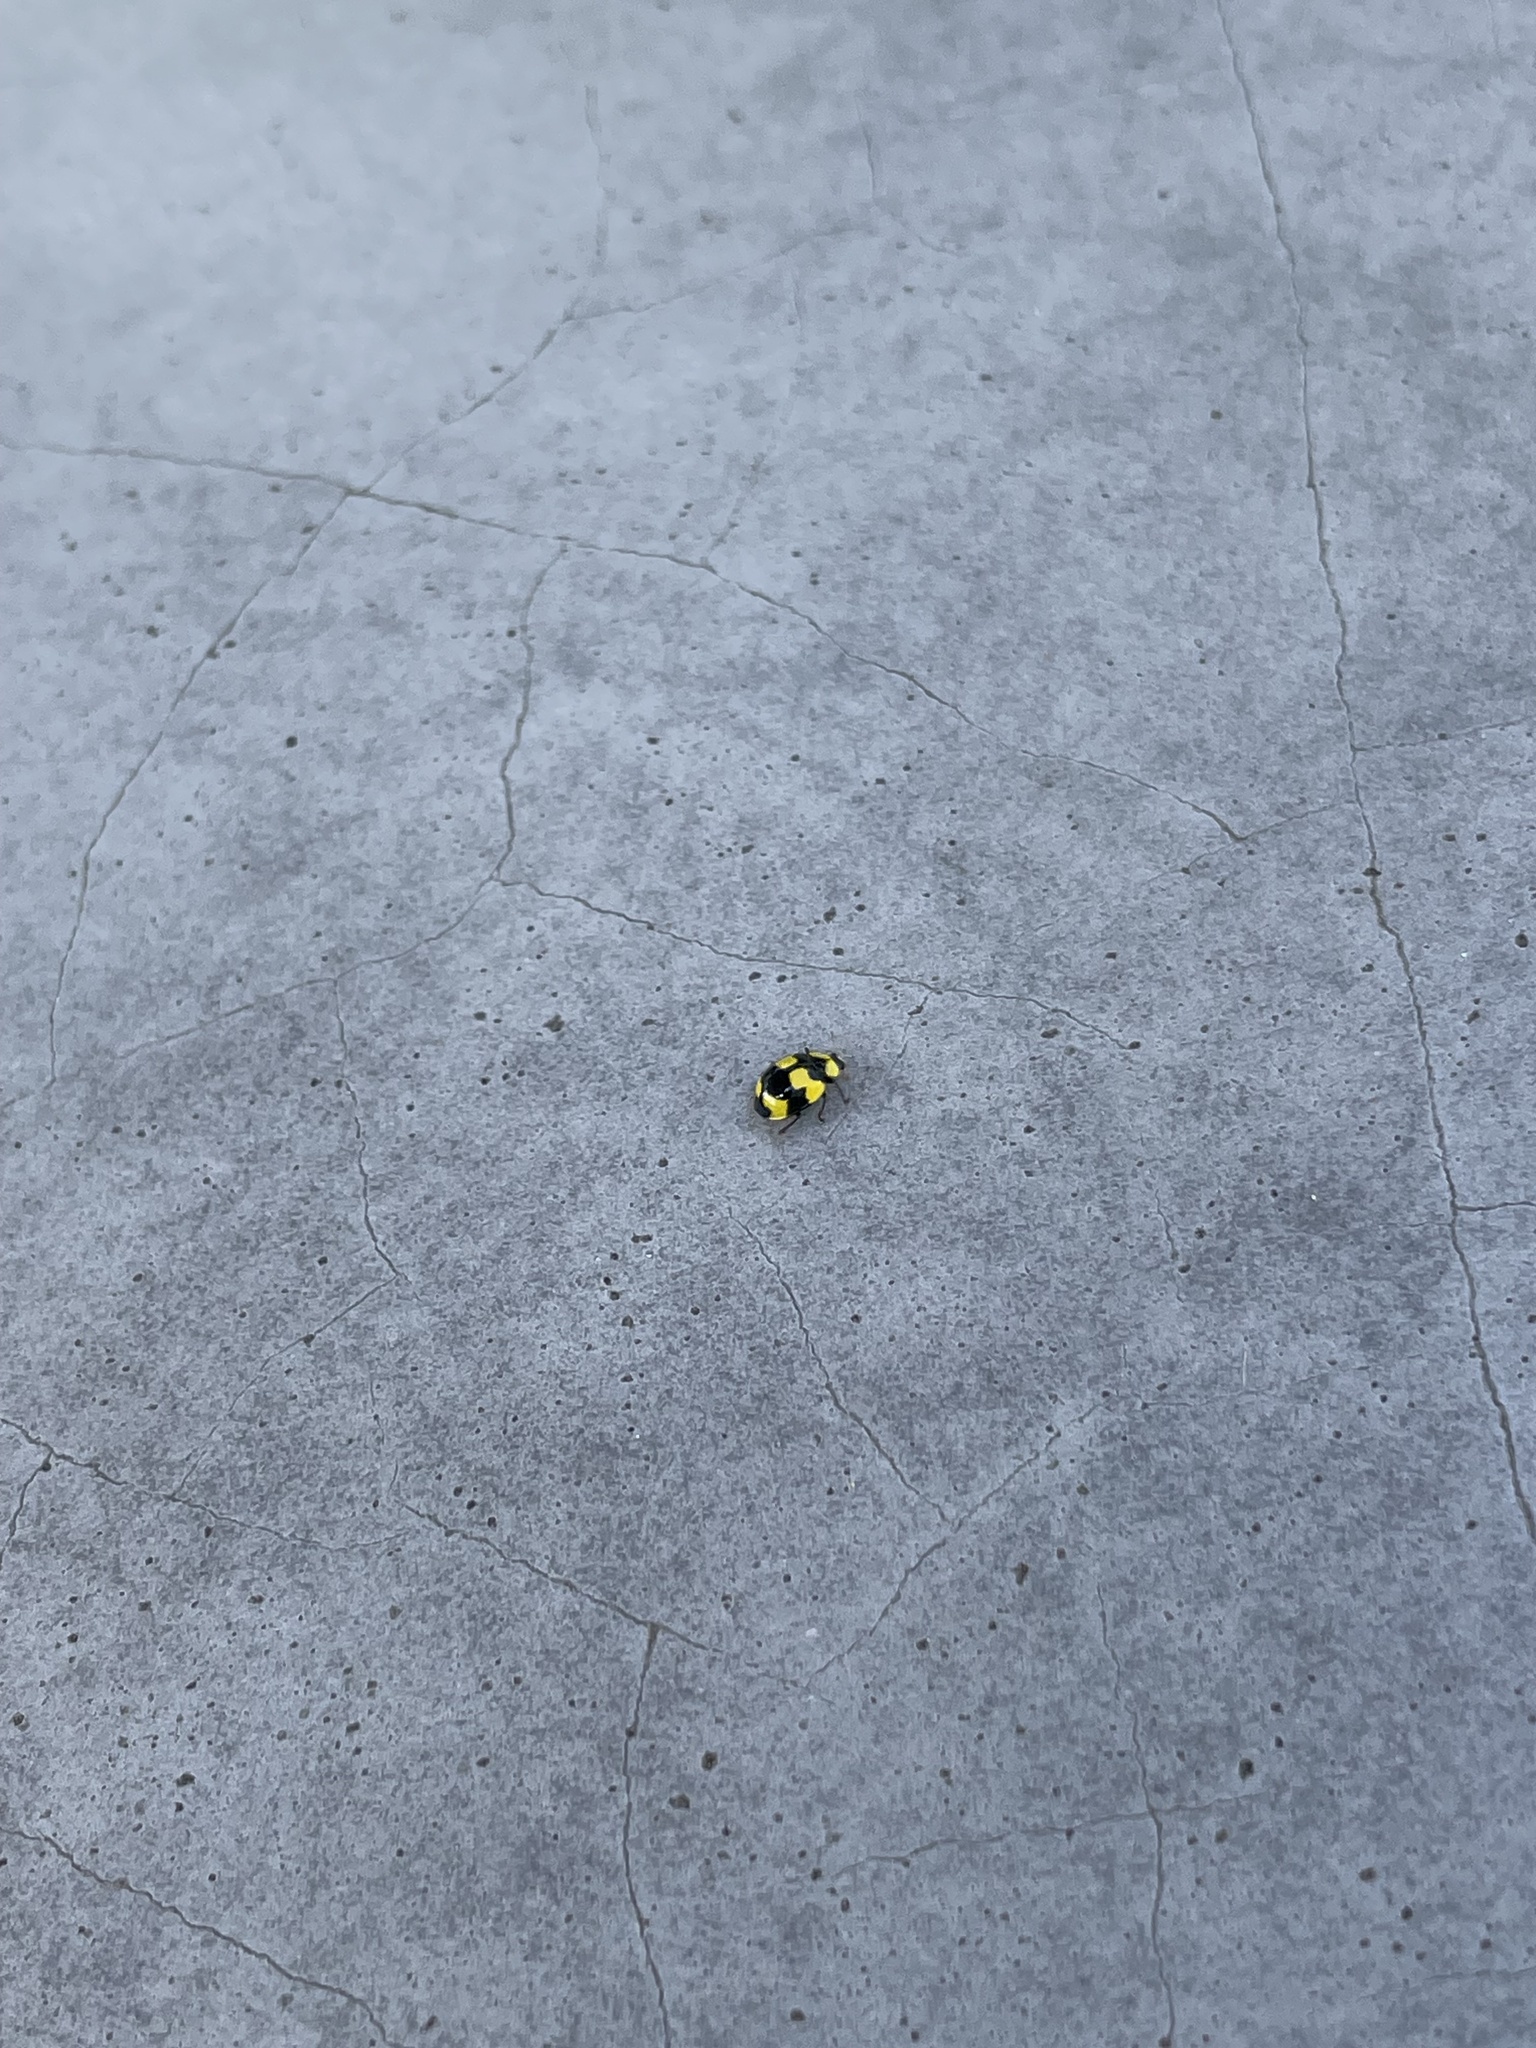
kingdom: Animalia
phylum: Arthropoda
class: Insecta
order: Coleoptera
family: Coccinellidae
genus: Illeis
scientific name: Illeis galbula
